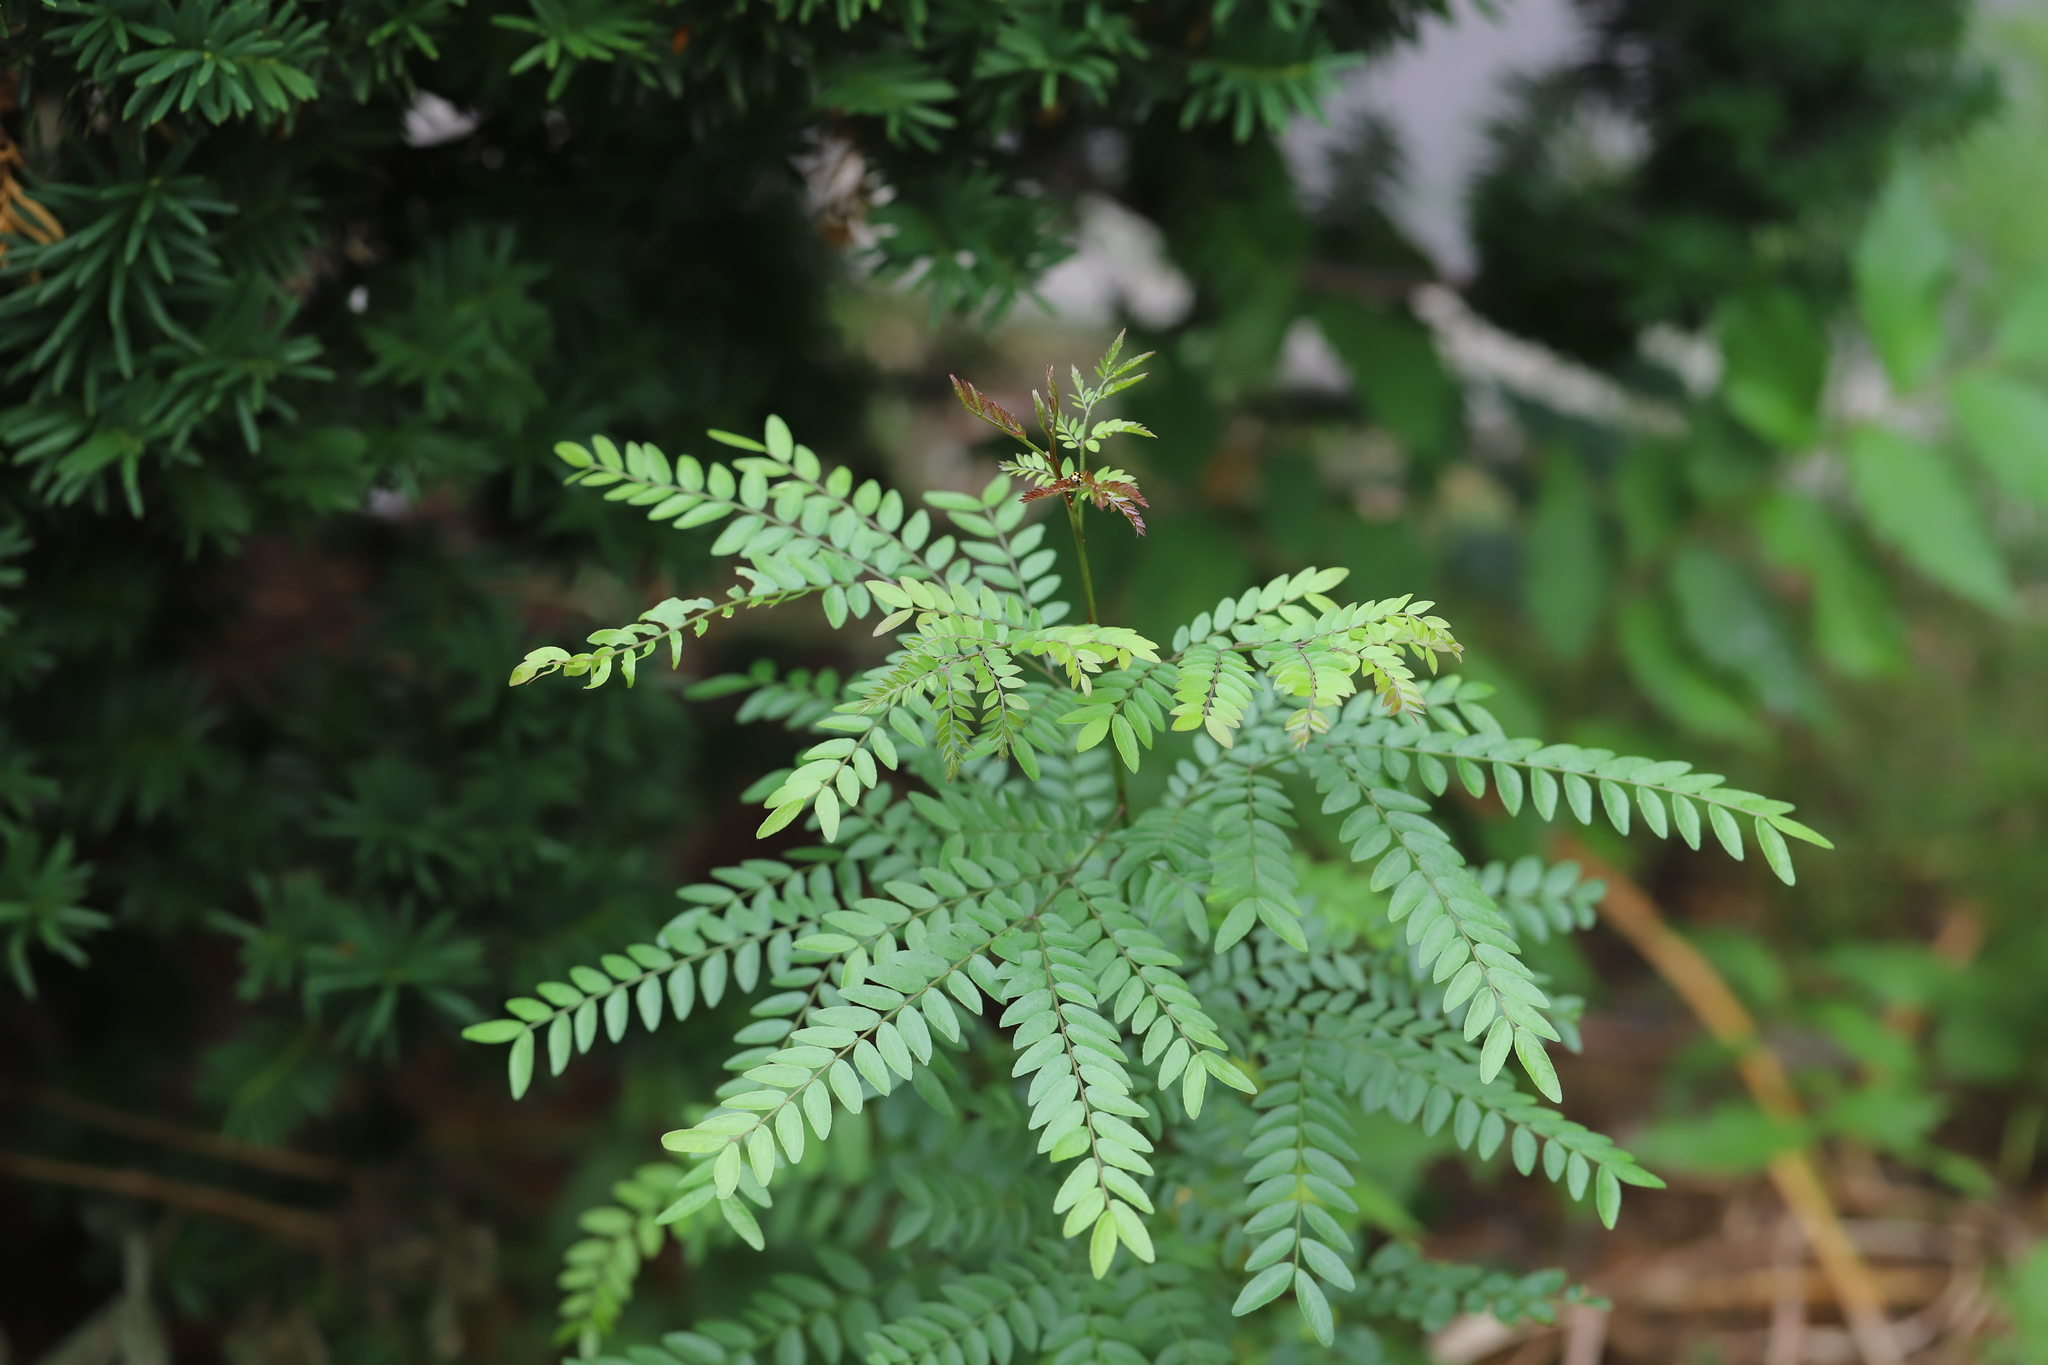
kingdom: Plantae
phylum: Tracheophyta
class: Magnoliopsida
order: Fabales
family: Fabaceae
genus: Gleditsia
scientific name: Gleditsia triacanthos
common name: Common honeylocust
